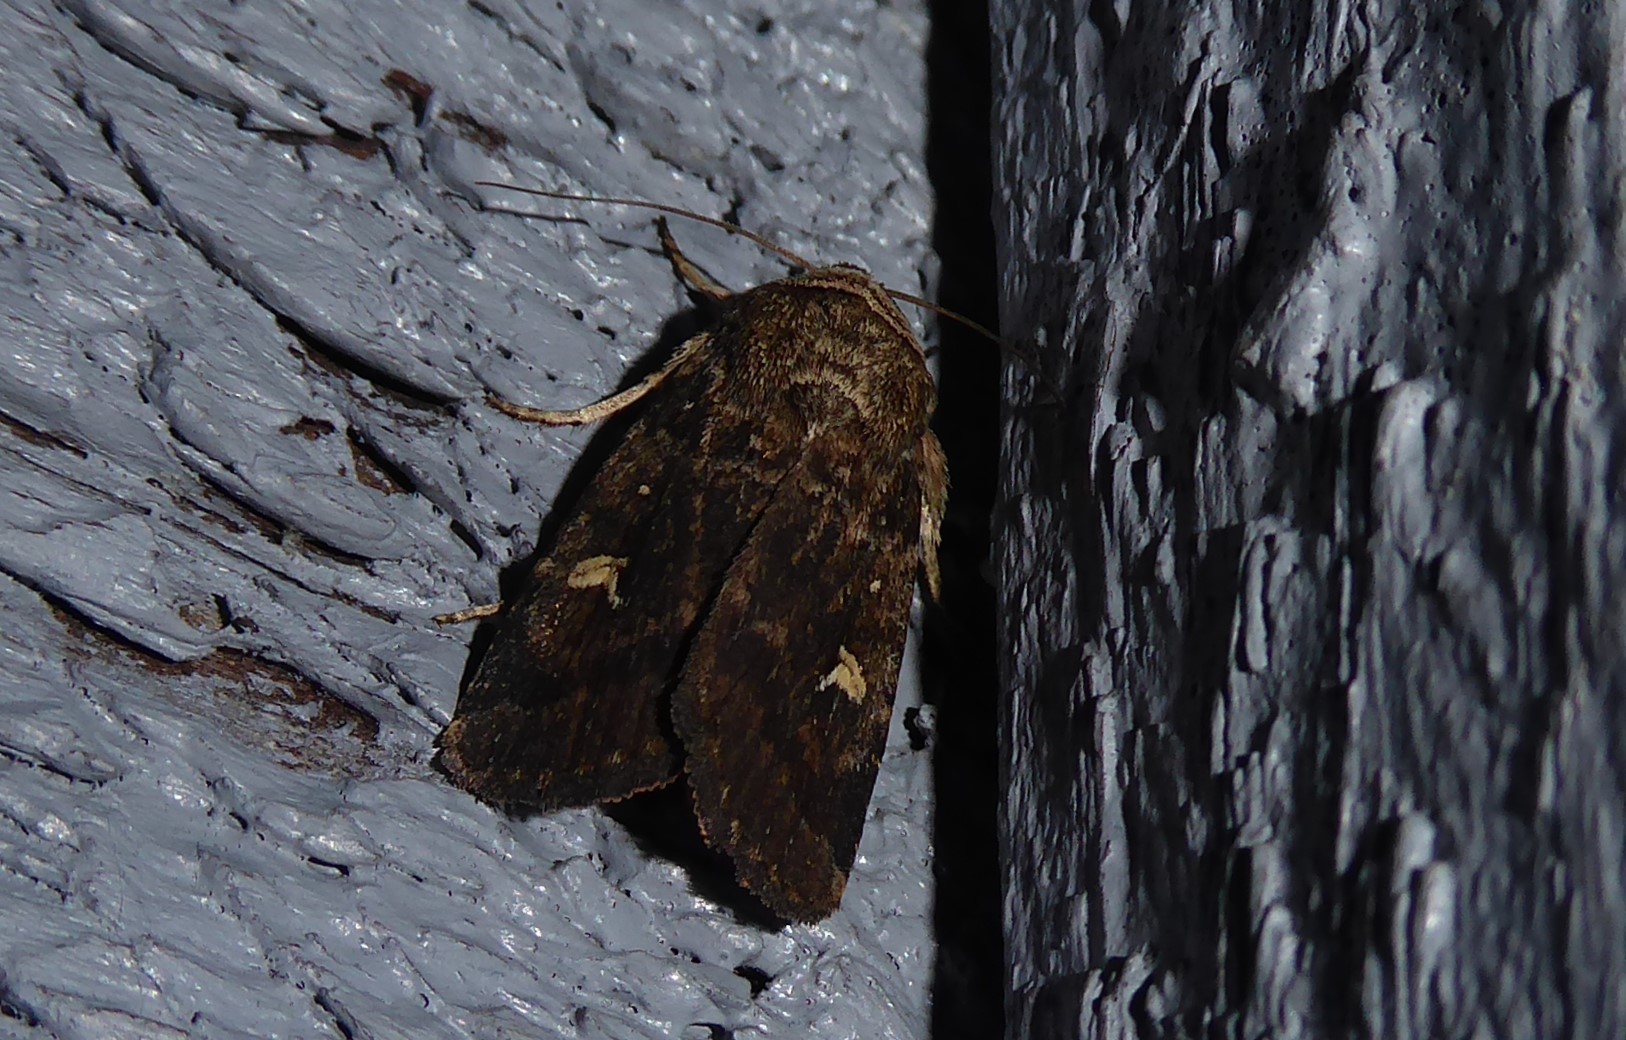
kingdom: Animalia
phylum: Arthropoda
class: Insecta
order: Lepidoptera
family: Noctuidae
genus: Proteuxoa
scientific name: Proteuxoa tetronycha
